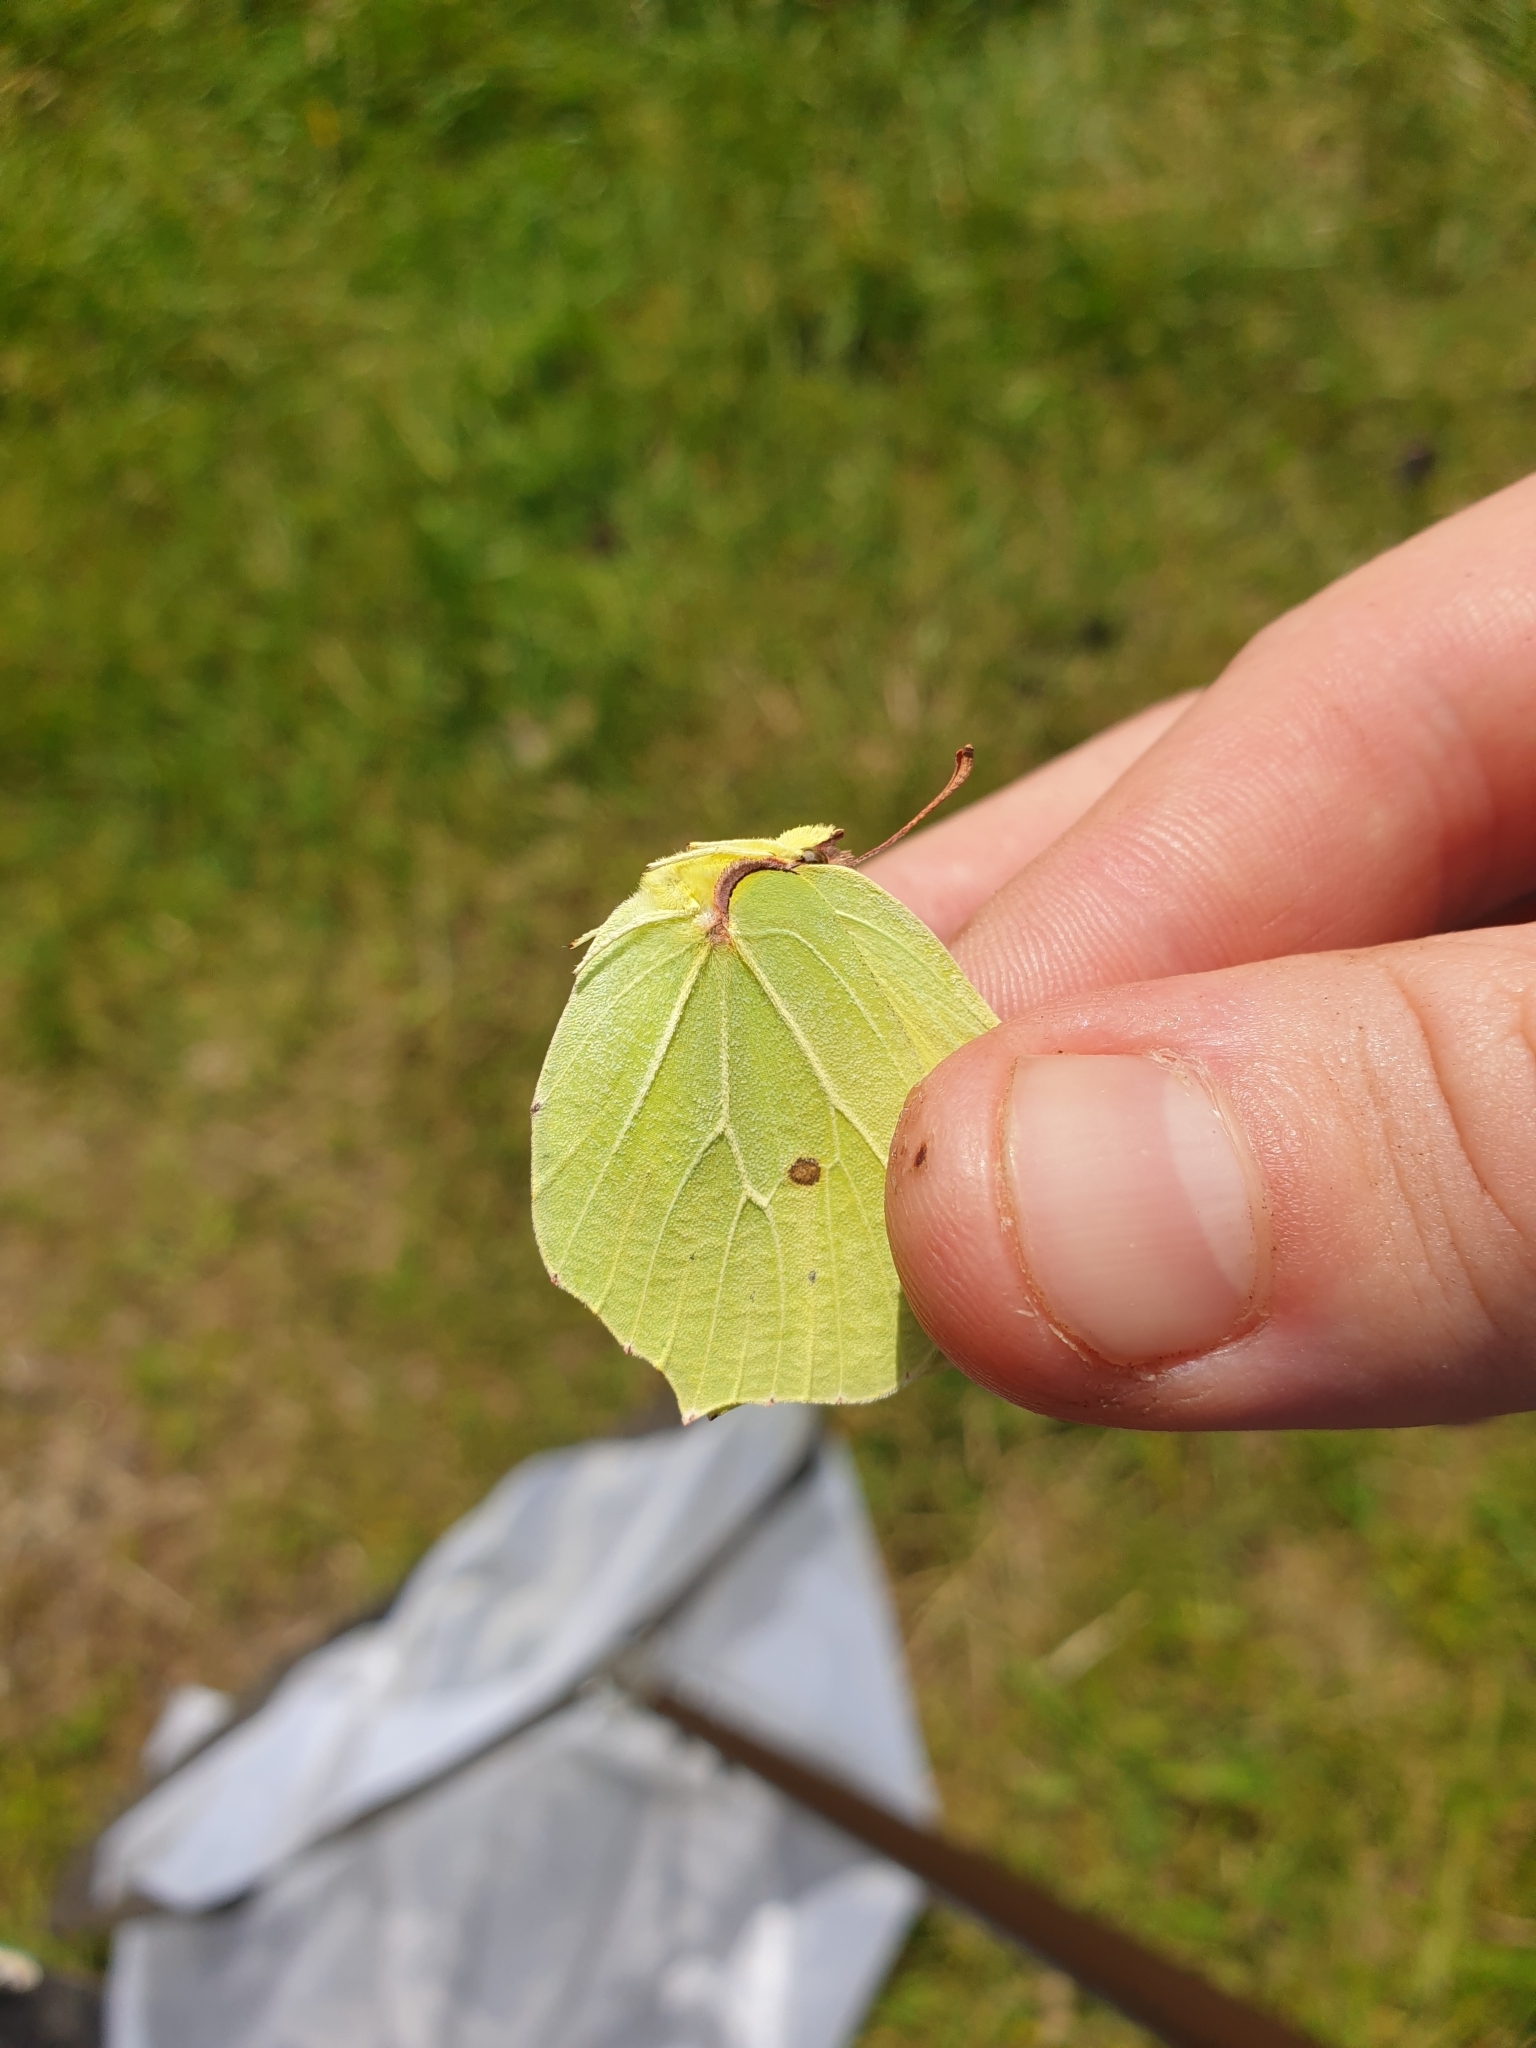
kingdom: Animalia
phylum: Arthropoda
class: Insecta
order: Lepidoptera
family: Pieridae
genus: Gonepteryx
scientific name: Gonepteryx rhamni
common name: Brimstone
